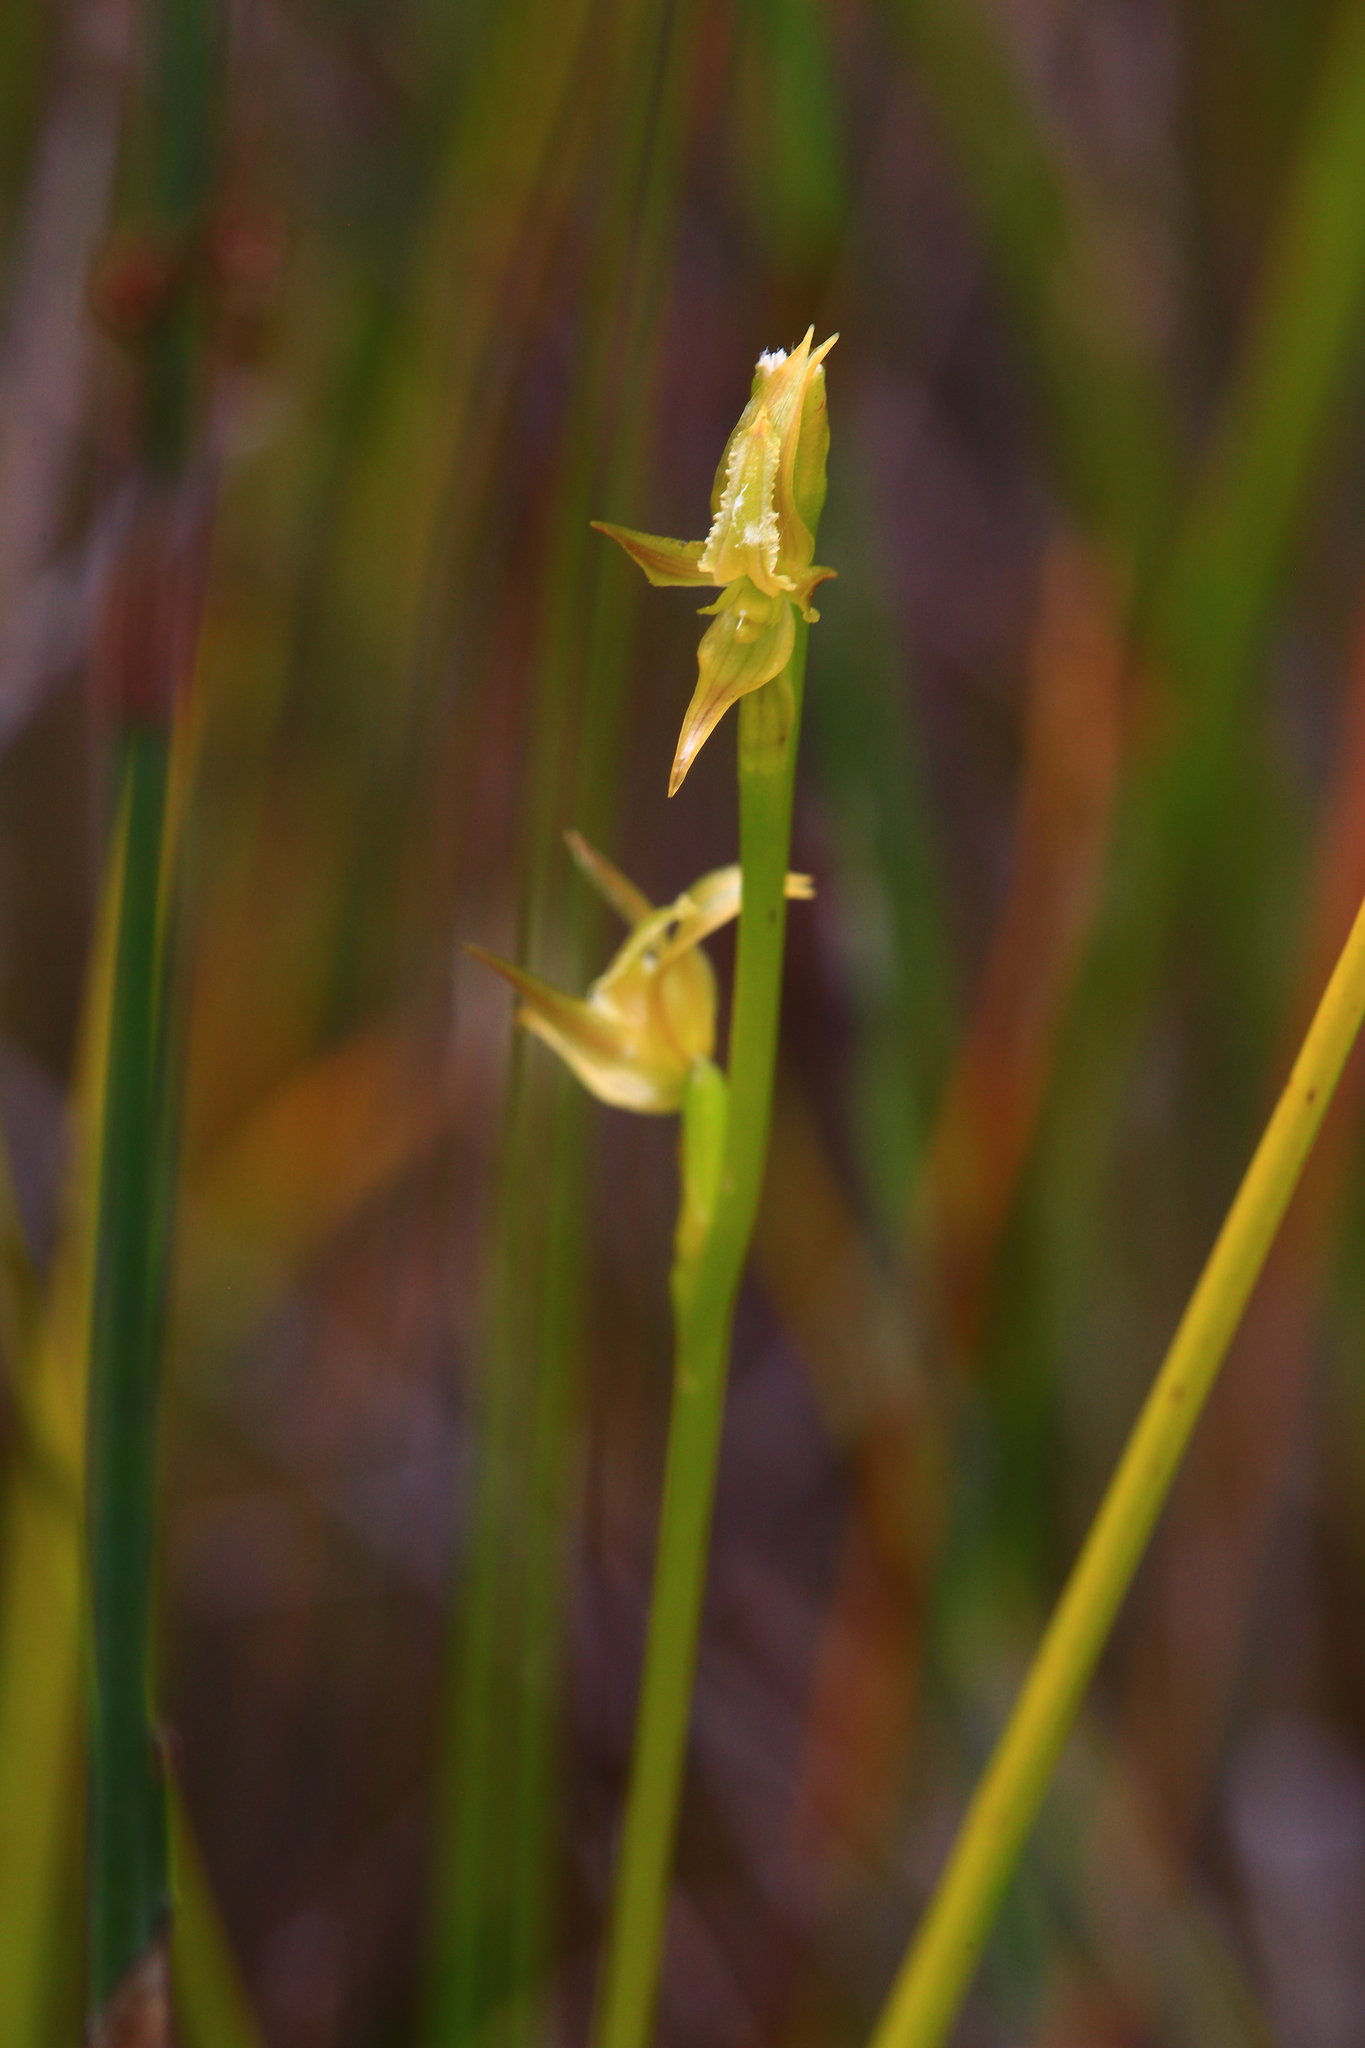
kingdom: Plantae
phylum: Tracheophyta
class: Liliopsida
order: Asparagales
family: Orchidaceae
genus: Prasophyllum
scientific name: Prasophyllum drummondii
